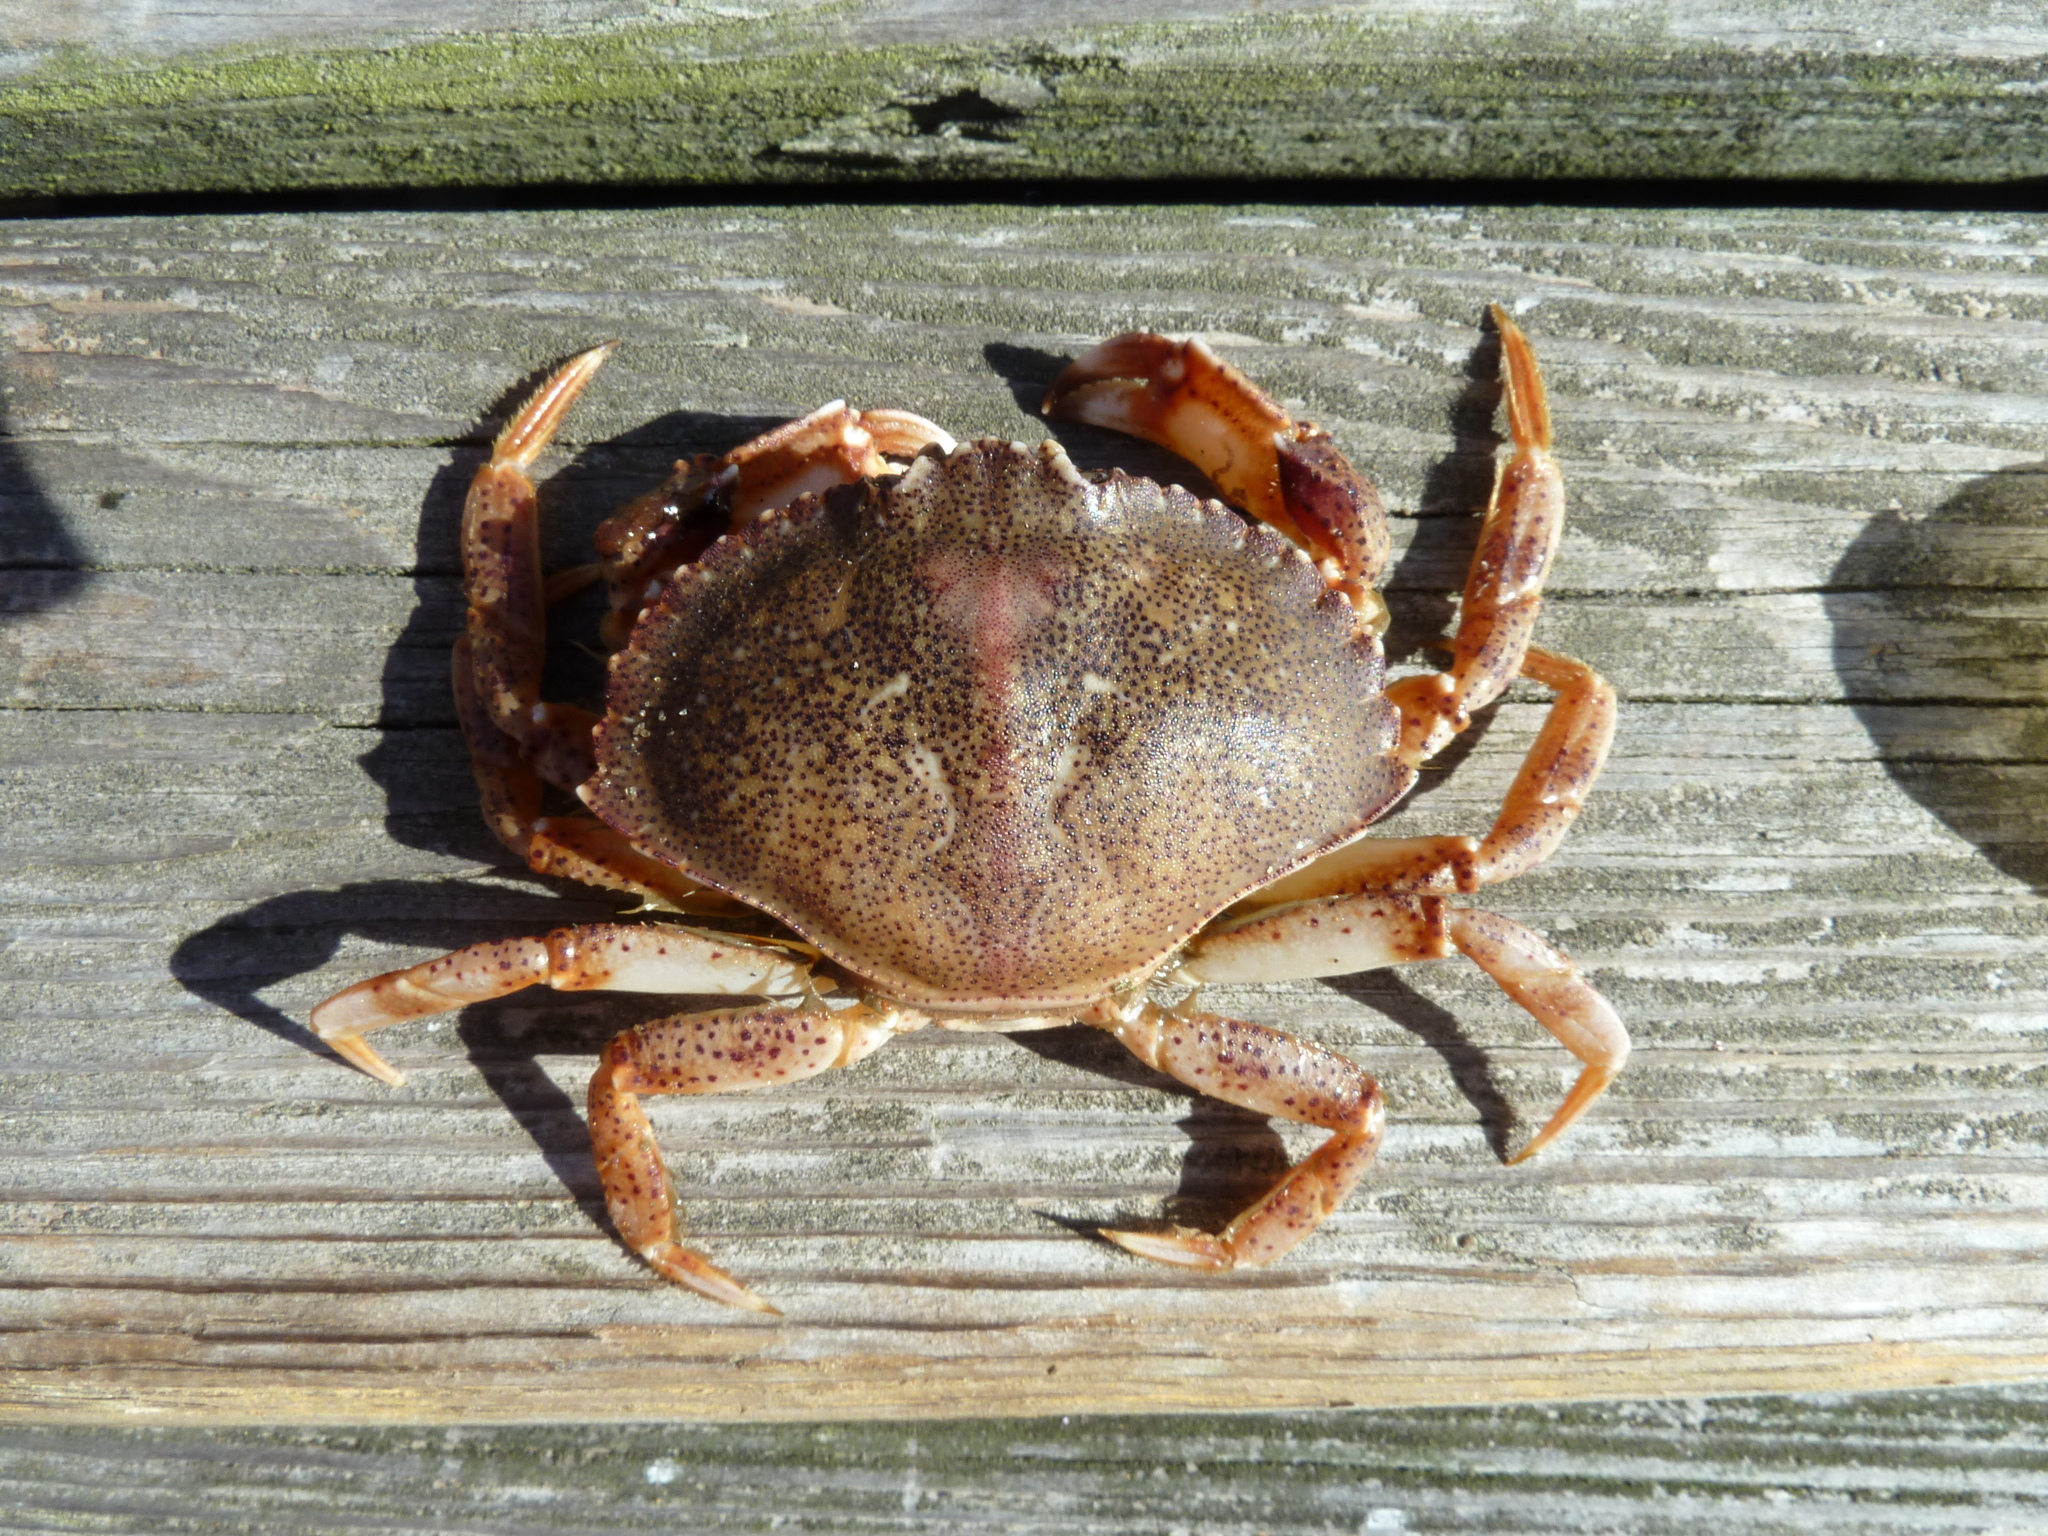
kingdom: Animalia
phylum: Arthropoda
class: Malacostraca
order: Decapoda
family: Cancridae
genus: Cancer
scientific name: Cancer irroratus
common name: Atlantic rock crab
